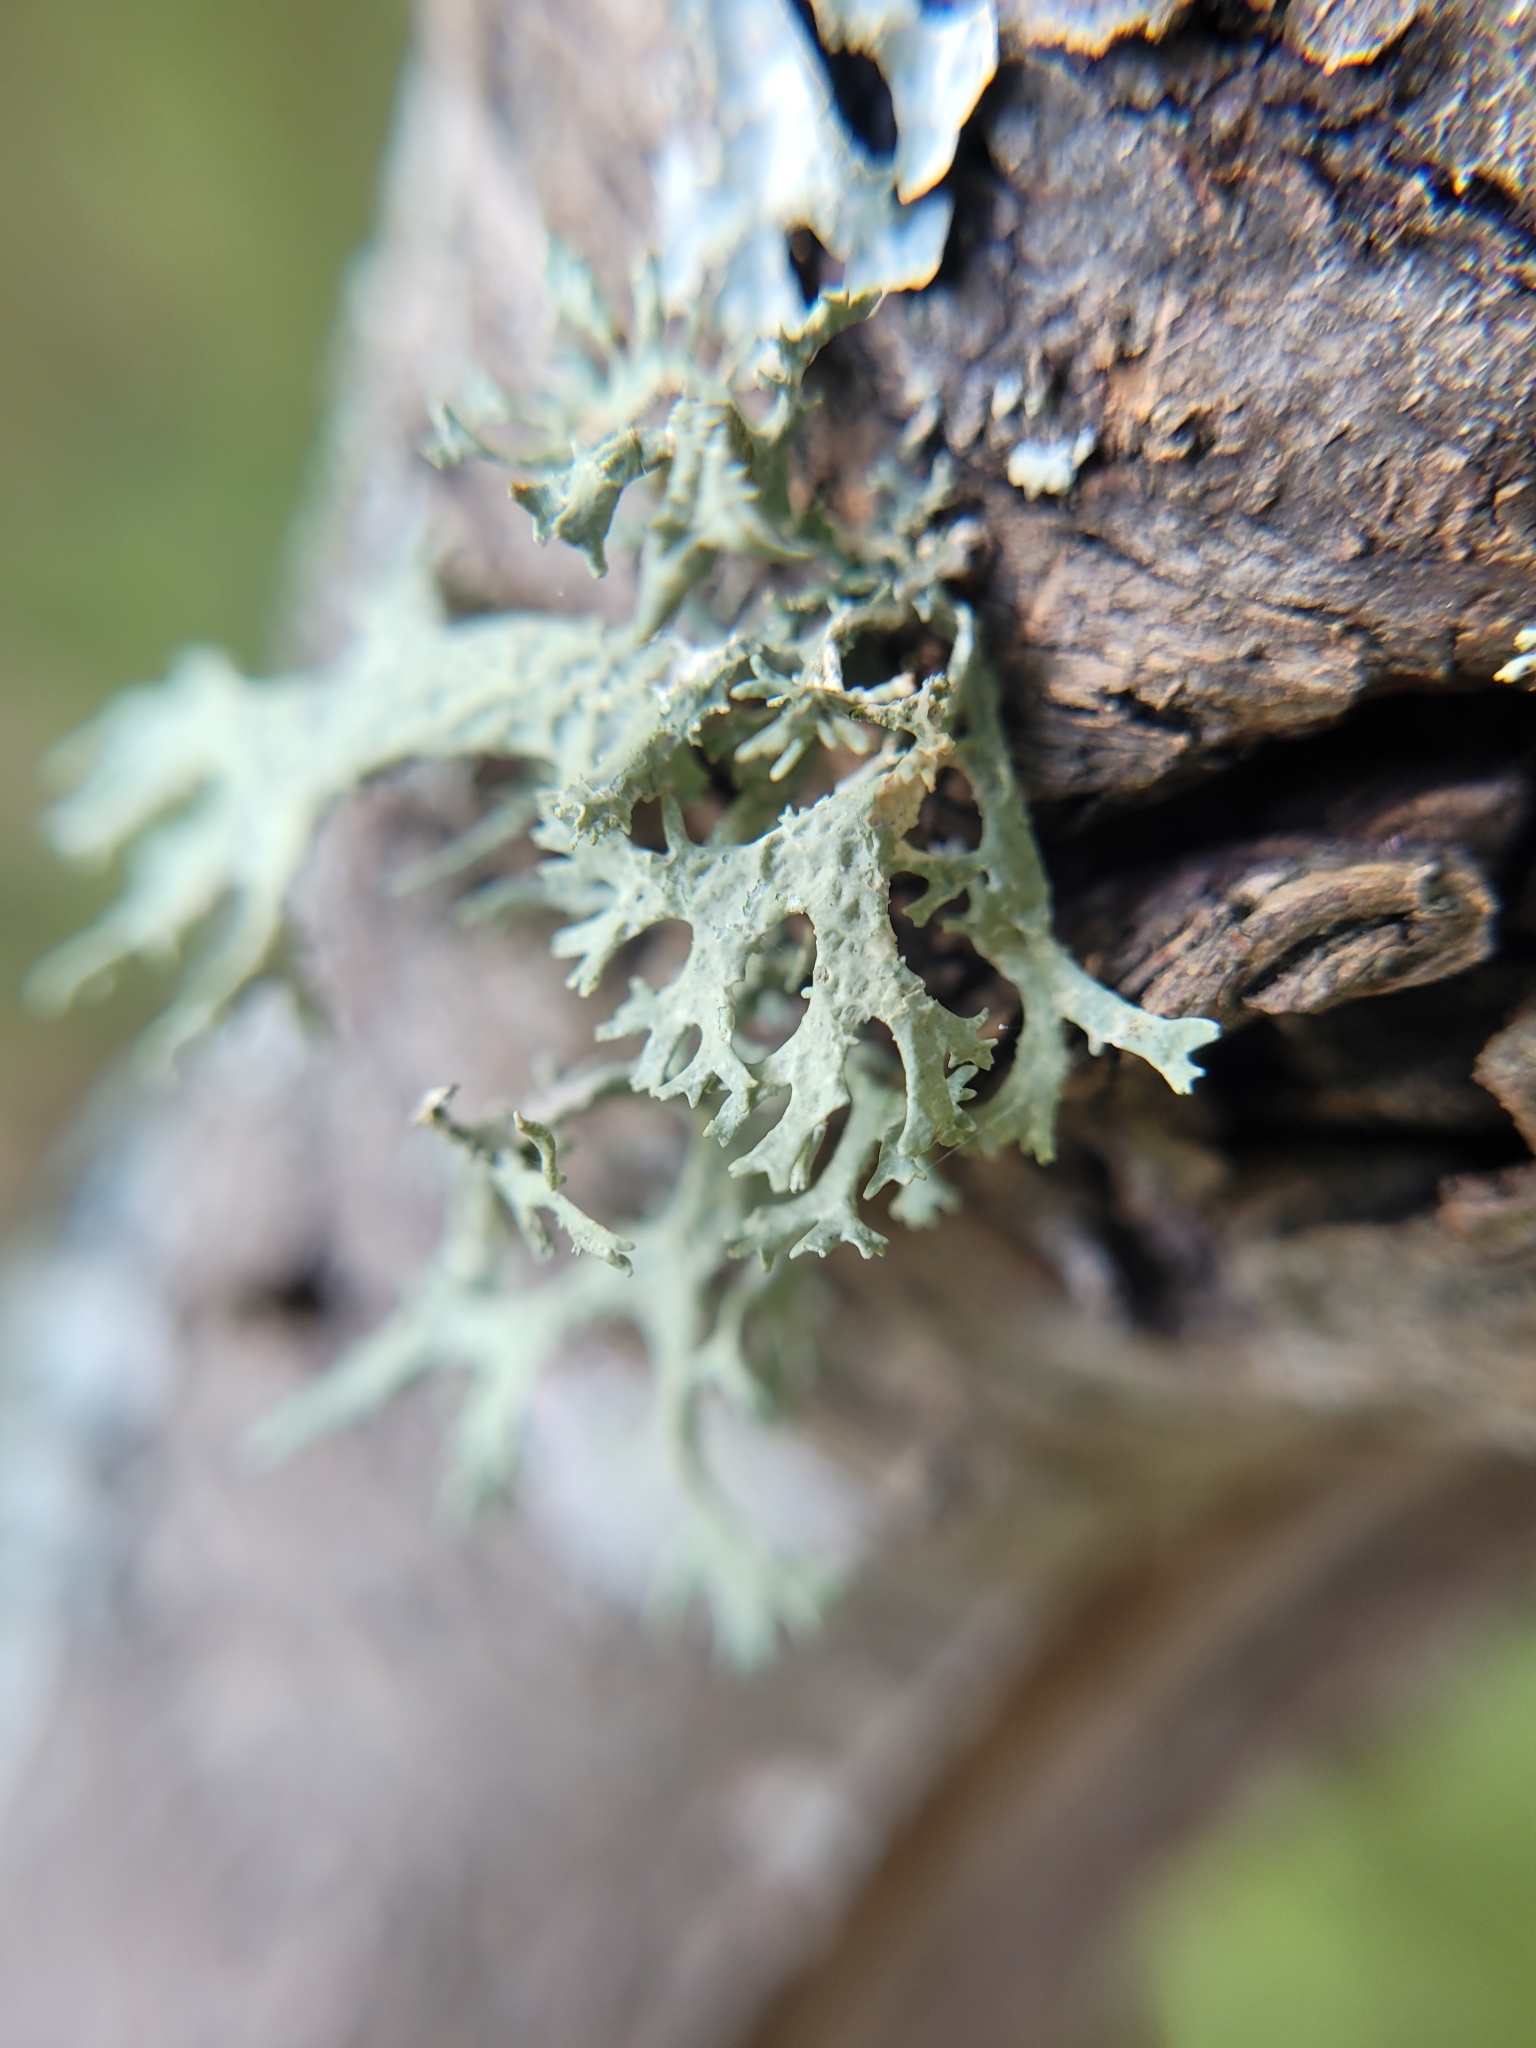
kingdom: Fungi
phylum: Ascomycota
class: Lecanoromycetes
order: Lecanorales
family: Parmeliaceae
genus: Evernia
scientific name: Evernia prunastri
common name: Oak moss
